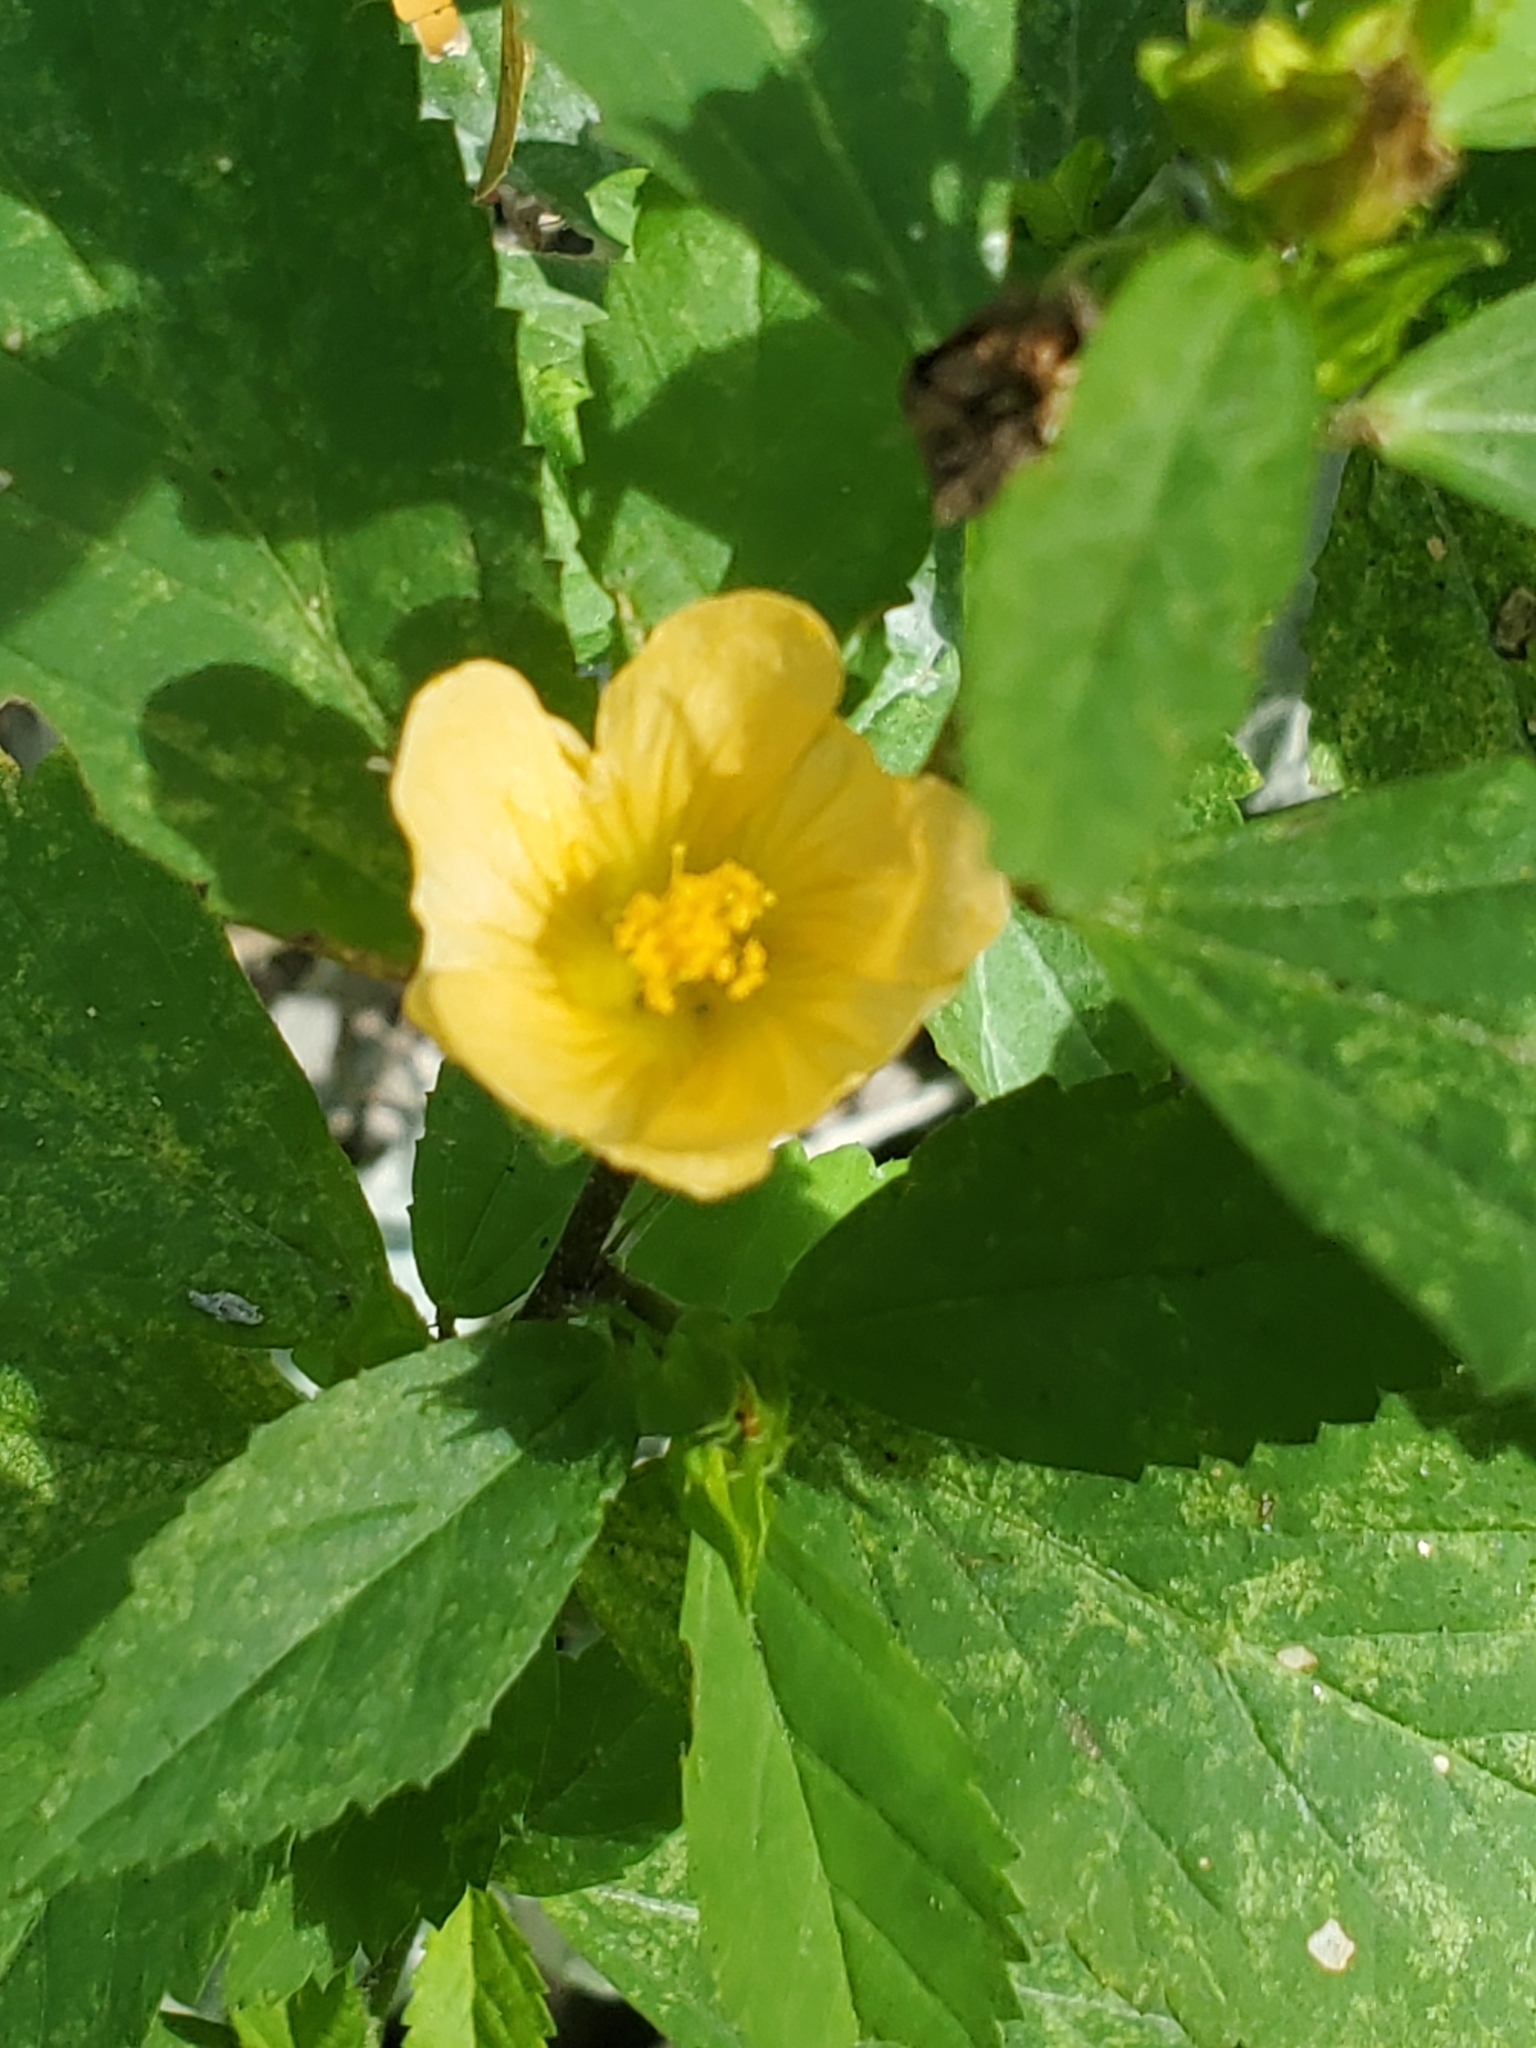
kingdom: Plantae
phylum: Tracheophyta
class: Magnoliopsida
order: Malvales
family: Malvaceae
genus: Sida
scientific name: Sida ulmifolia
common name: Broom weed
